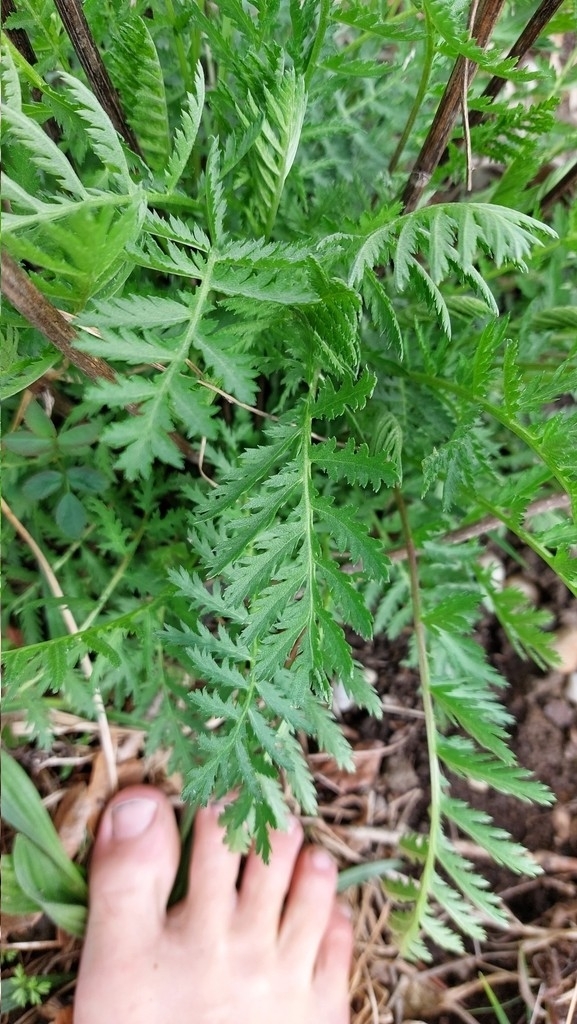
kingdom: Plantae
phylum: Tracheophyta
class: Magnoliopsida
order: Asterales
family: Asteraceae
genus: Tanacetum
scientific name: Tanacetum vulgare
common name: Common tansy
